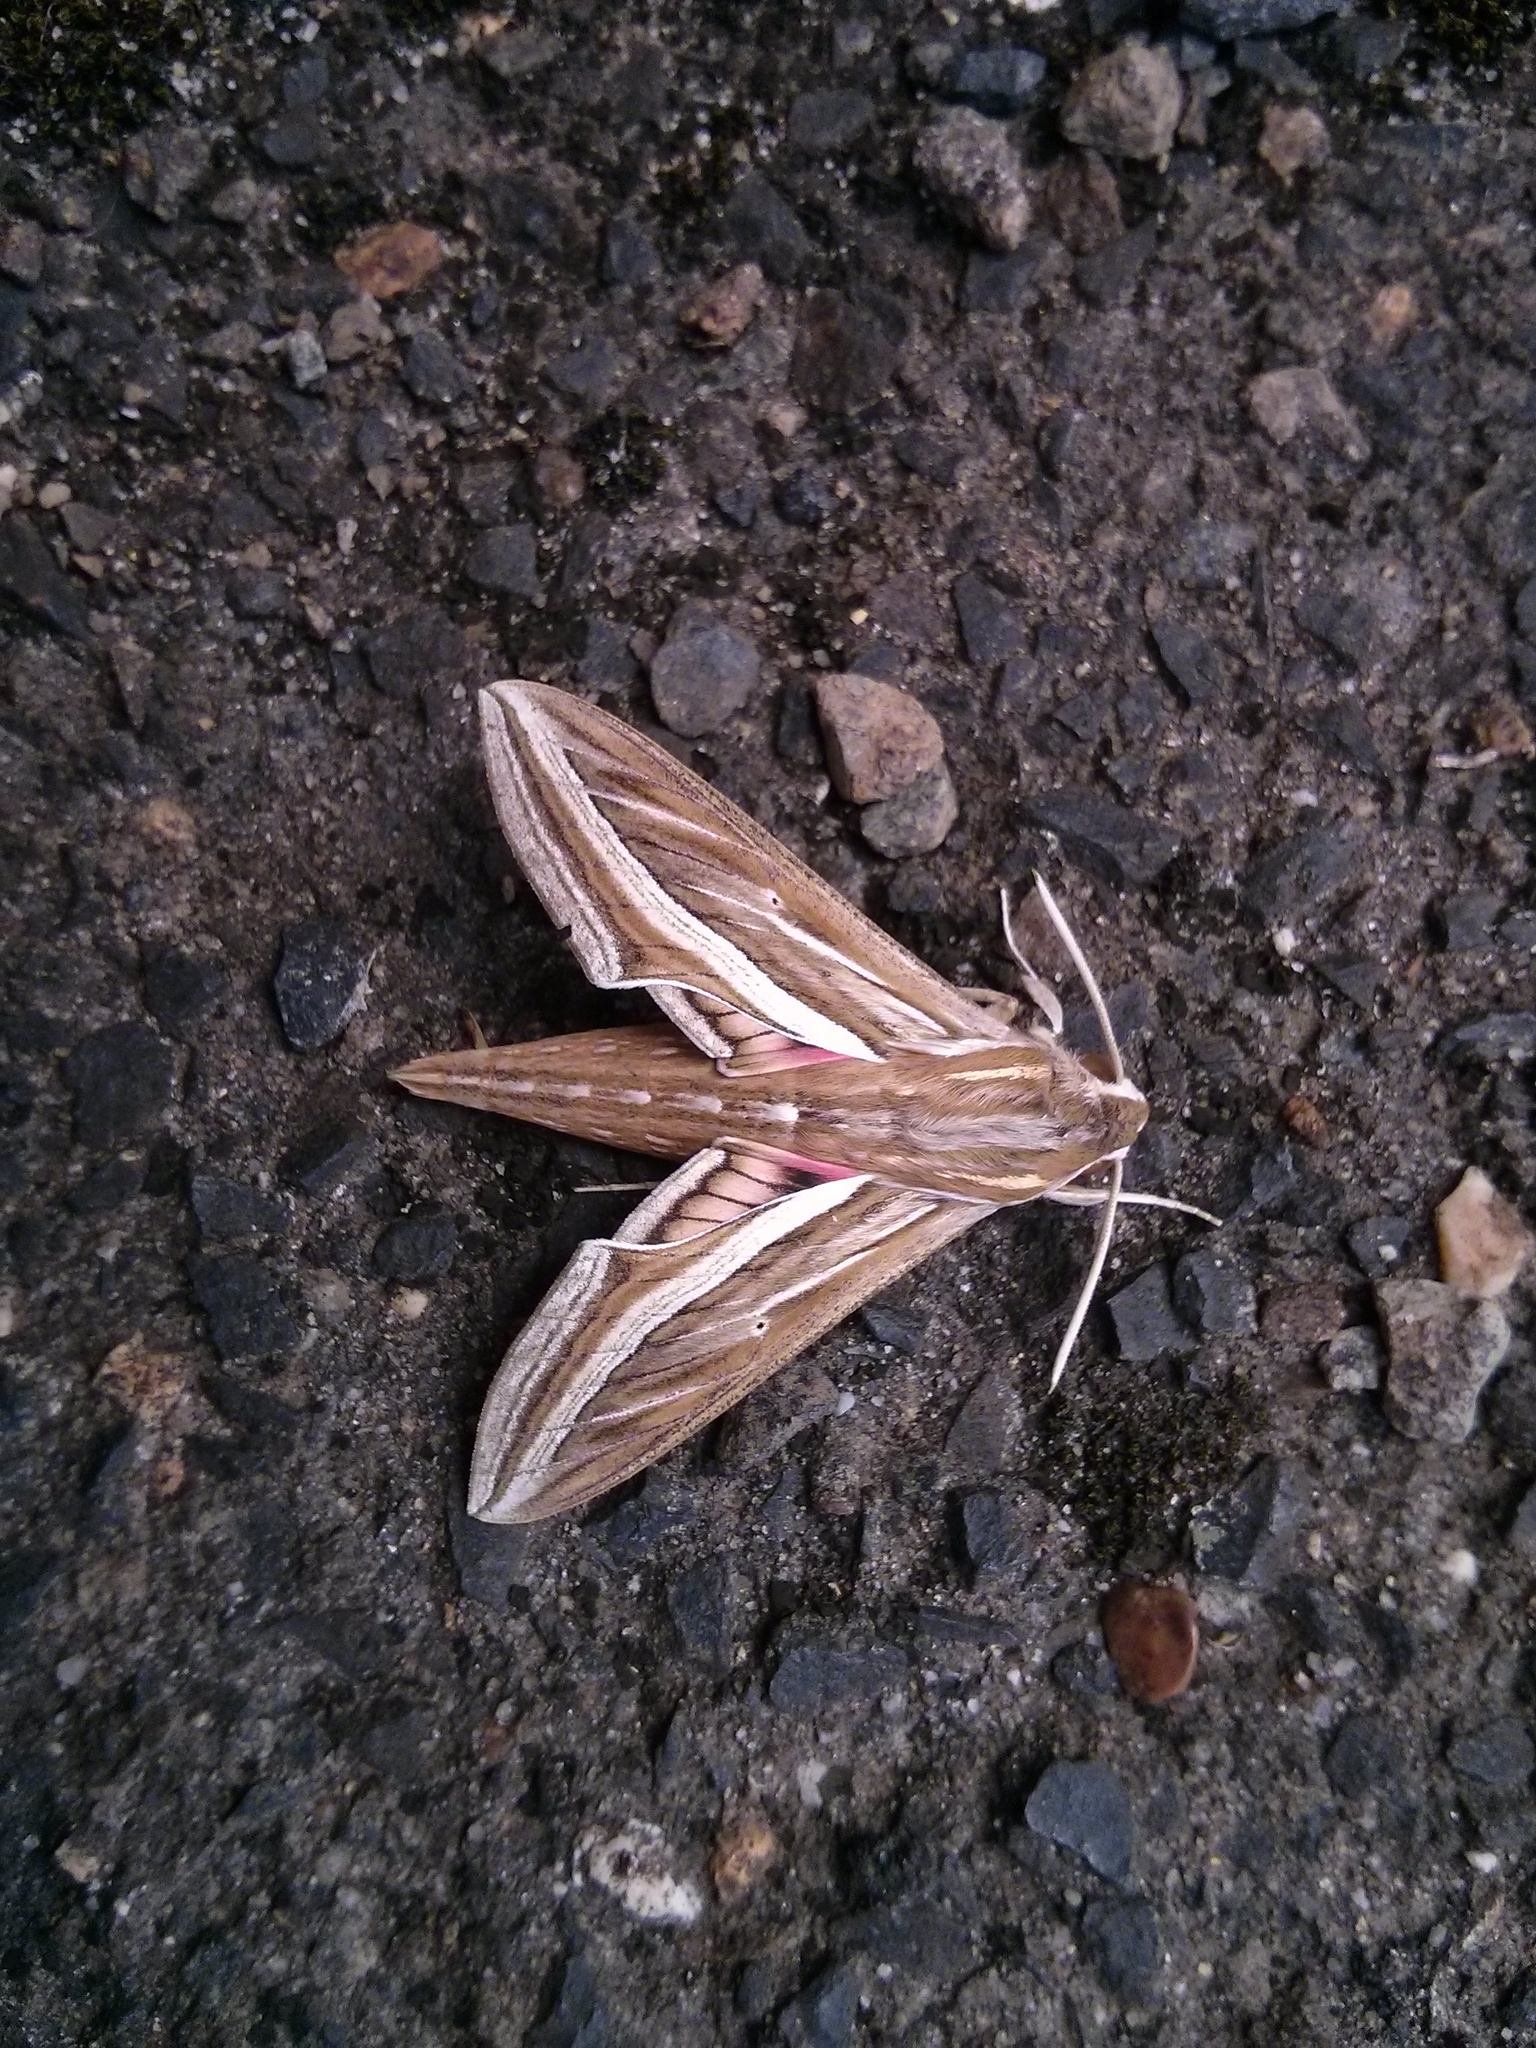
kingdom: Animalia
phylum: Arthropoda
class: Insecta
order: Lepidoptera
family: Sphingidae
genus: Hippotion
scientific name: Hippotion celerio
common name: Silver-striped hawk-moth
